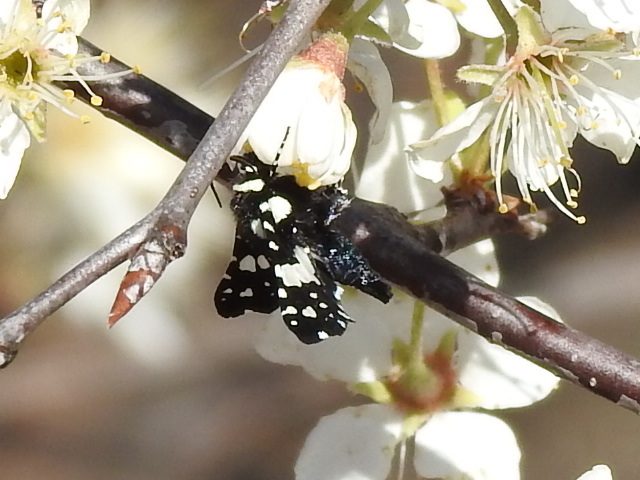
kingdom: Animalia
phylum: Arthropoda
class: Insecta
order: Lepidoptera
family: Thyrididae
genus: Pseudothyris
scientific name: Pseudothyris sepulchralis
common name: Mournful thyris moth
